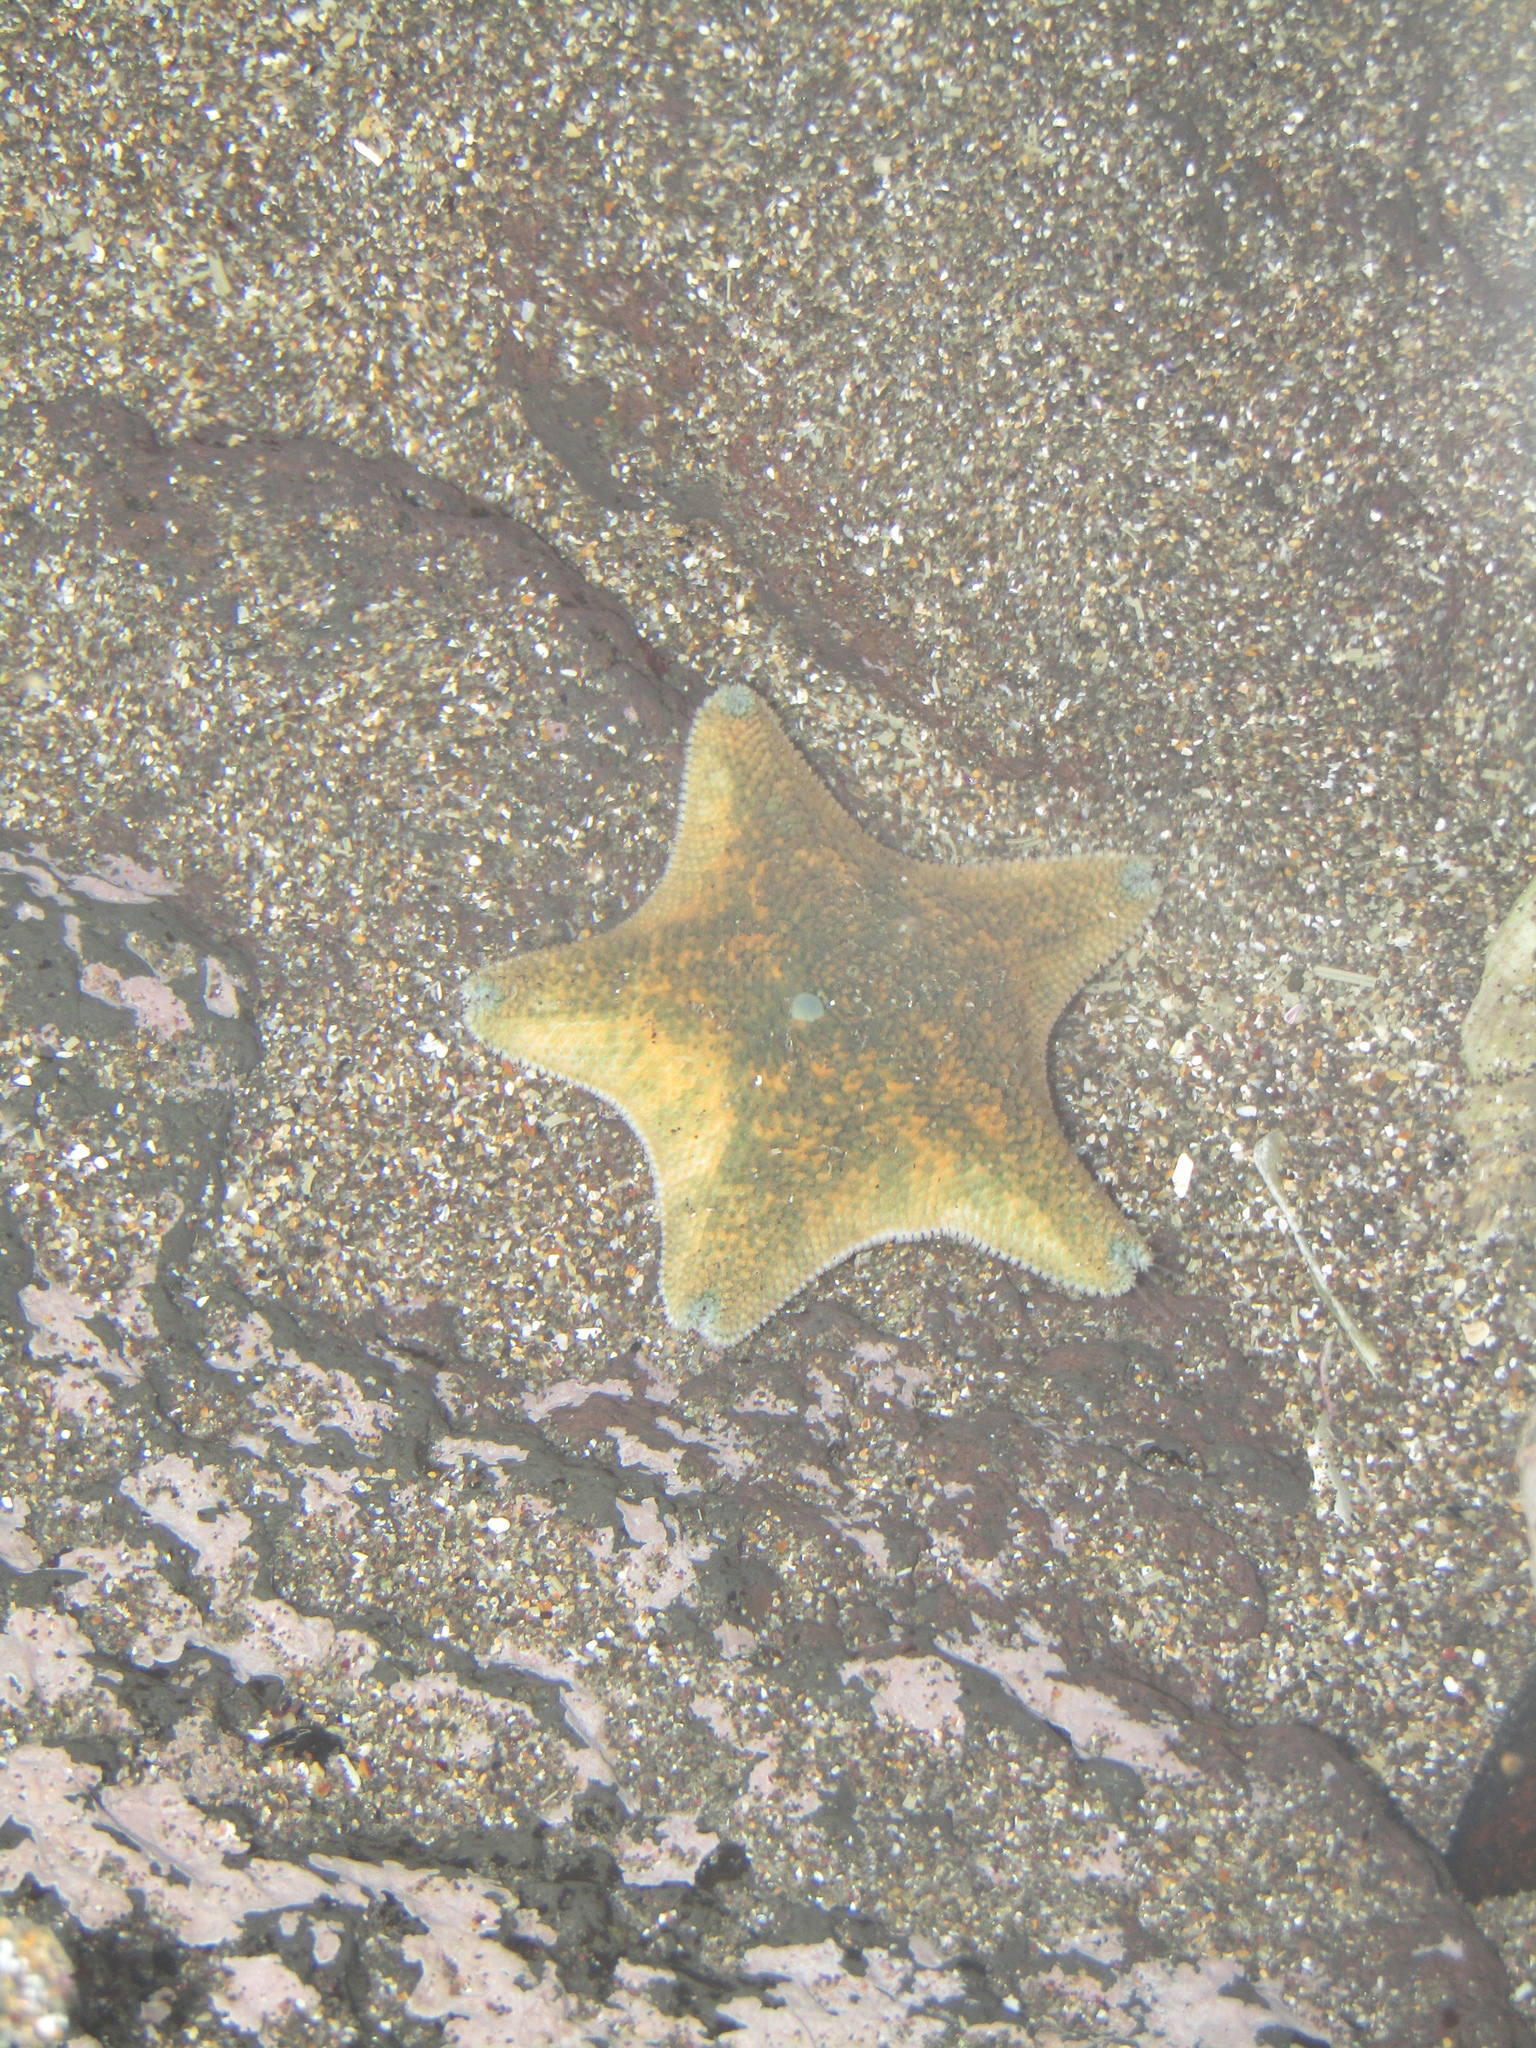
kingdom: Animalia
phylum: Echinodermata
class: Asteroidea
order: Valvatida
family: Asterinidae
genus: Patiriella
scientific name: Patiriella regularis
